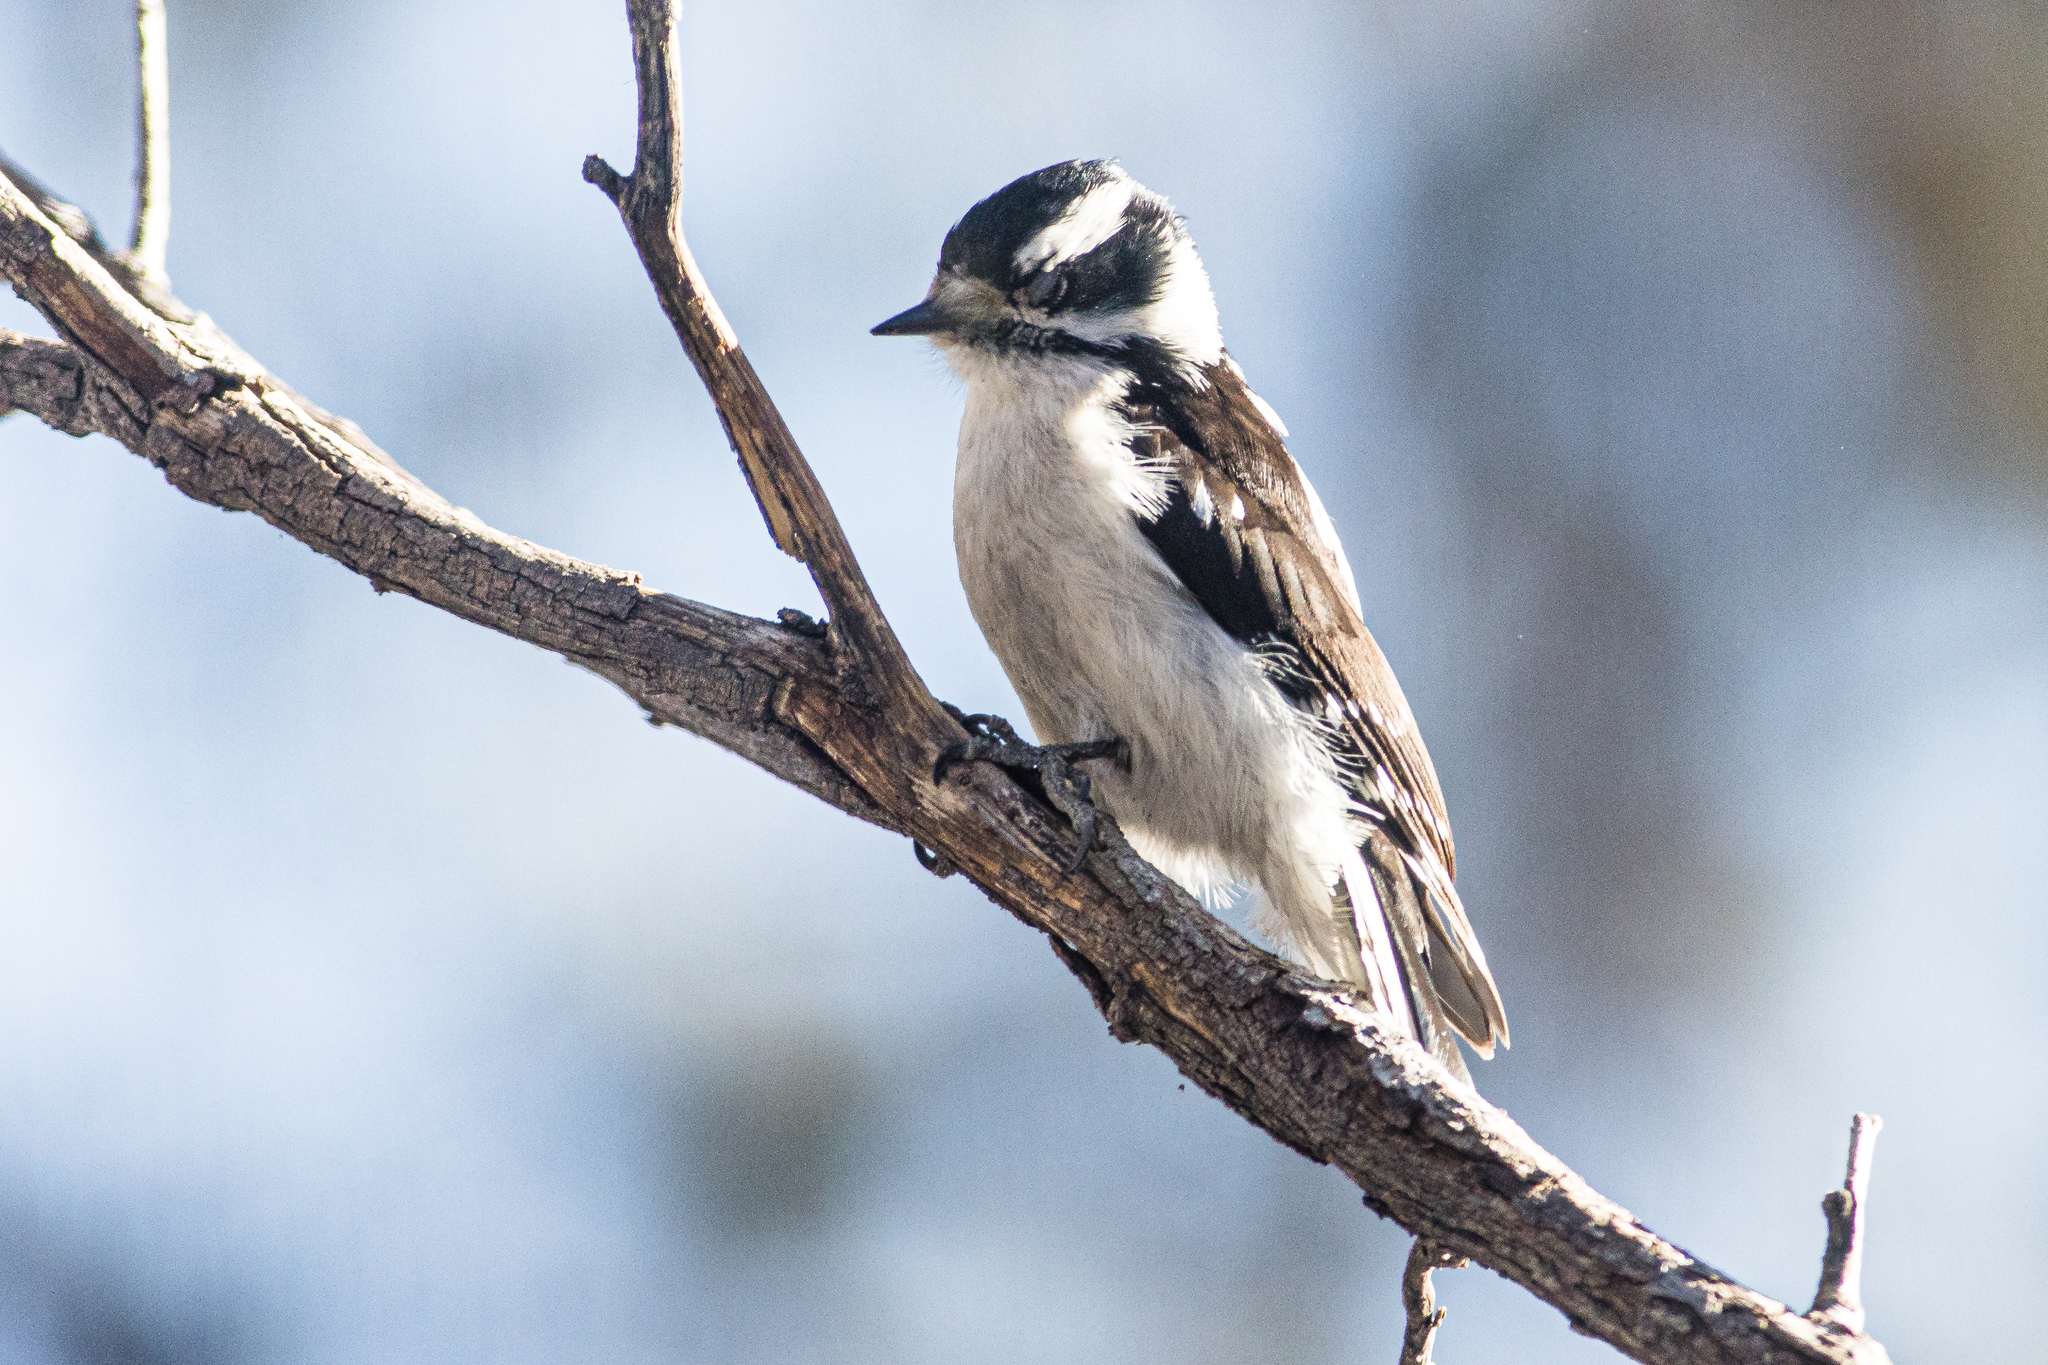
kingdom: Animalia
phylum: Chordata
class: Aves
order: Piciformes
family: Picidae
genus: Dryobates
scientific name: Dryobates pubescens
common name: Downy woodpecker
